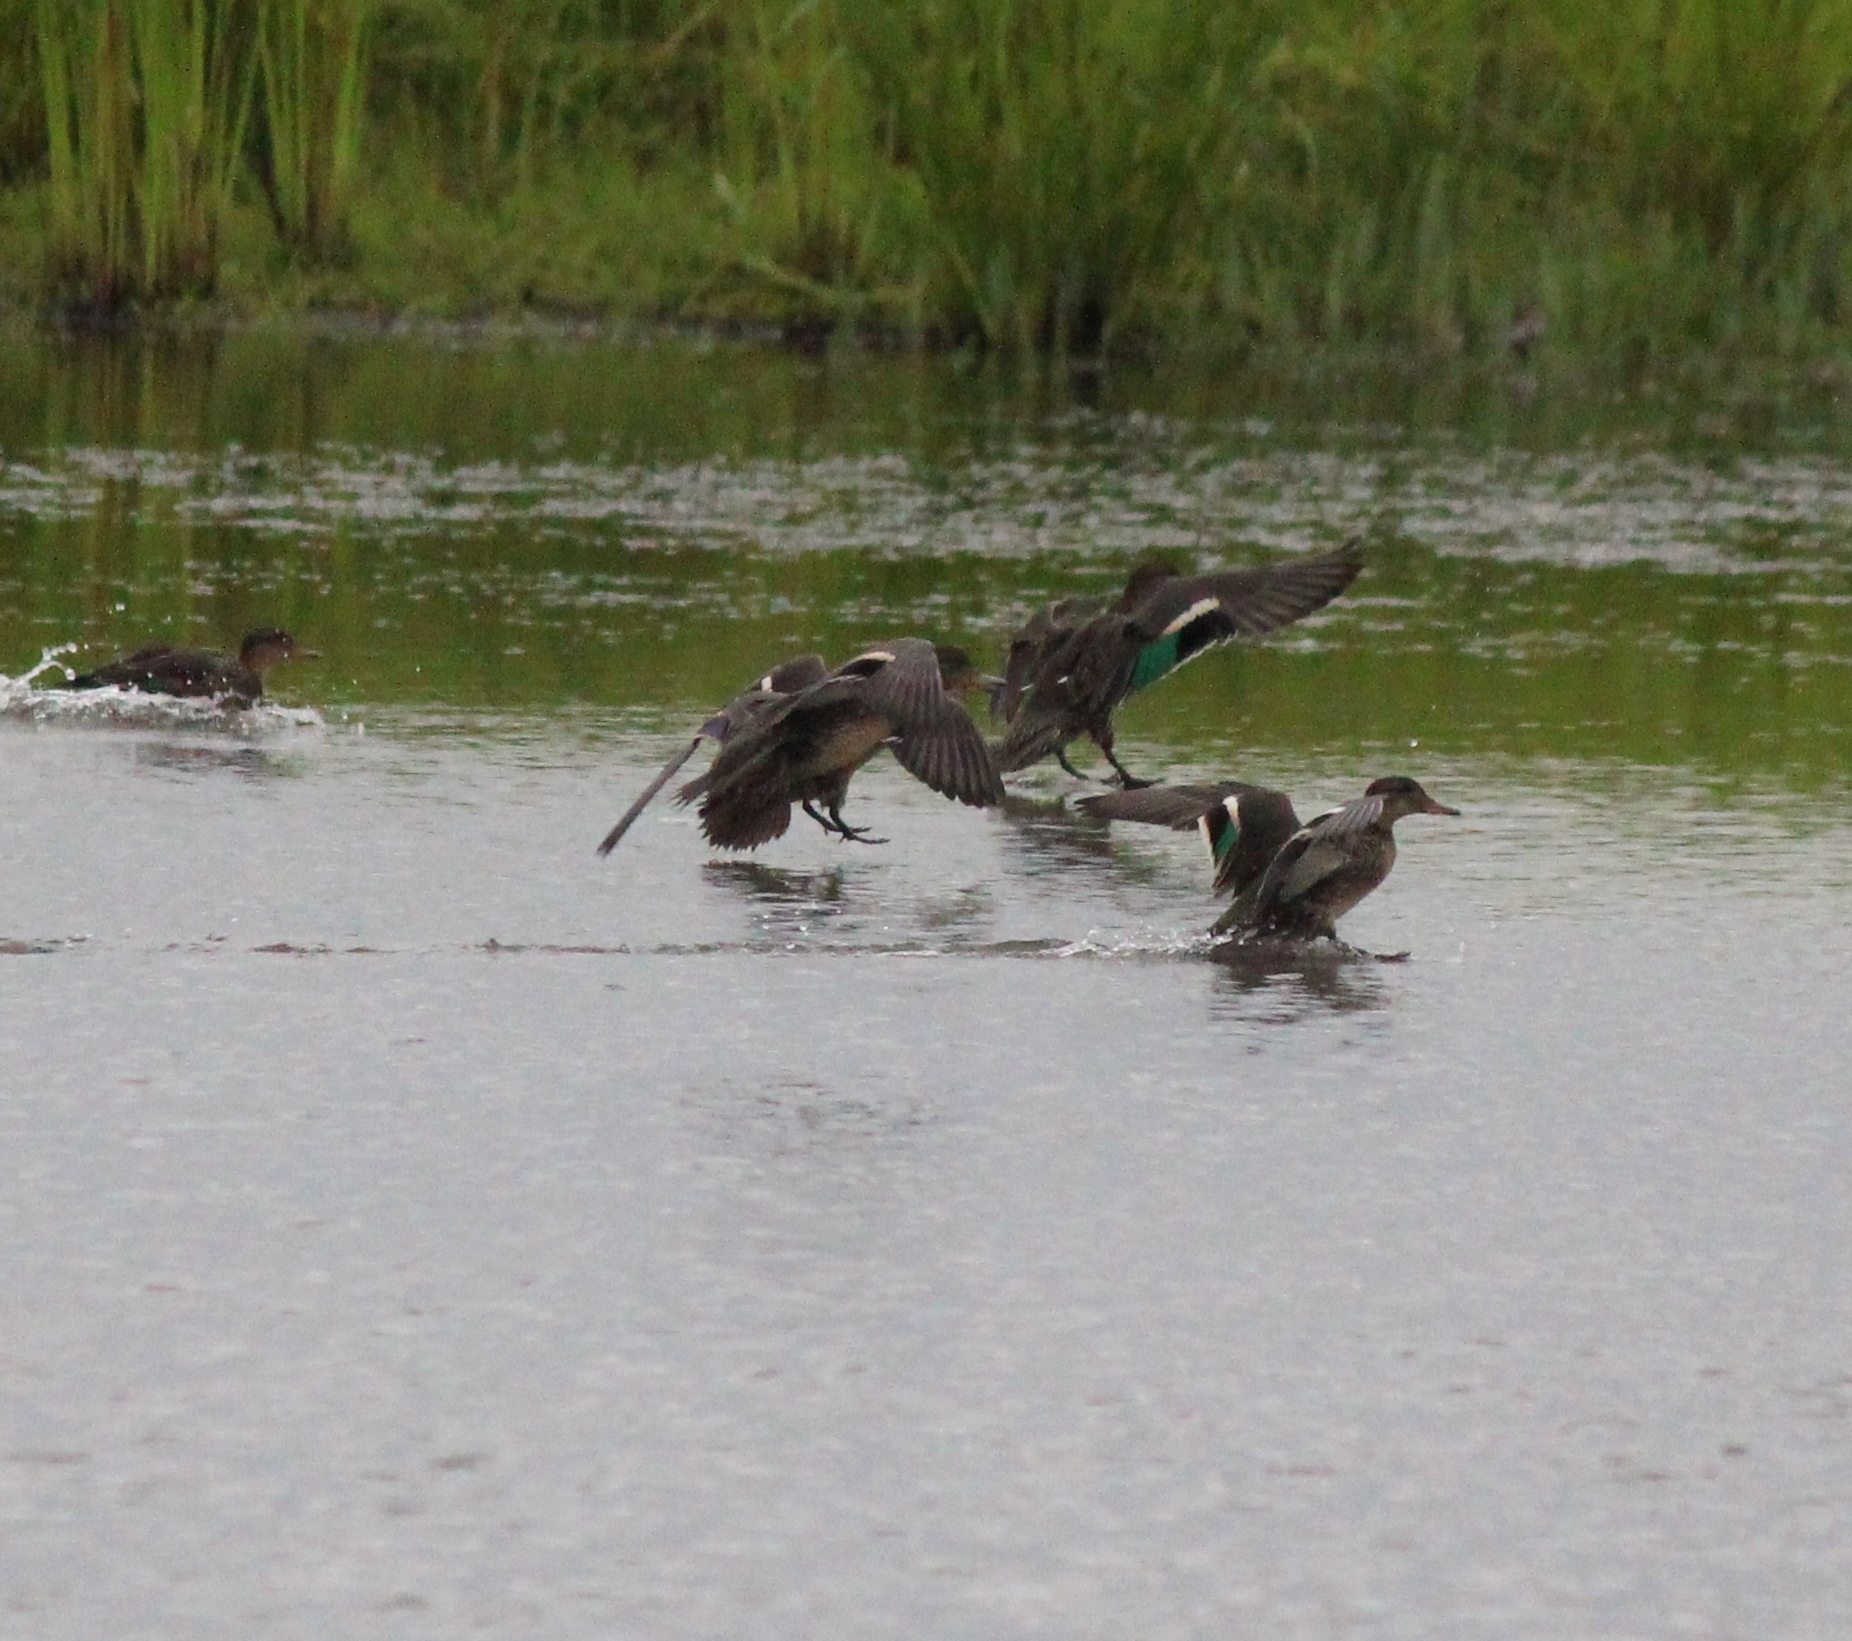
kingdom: Animalia
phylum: Chordata
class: Aves
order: Anseriformes
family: Anatidae
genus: Anas
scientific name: Anas crecca
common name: Eurasian teal
